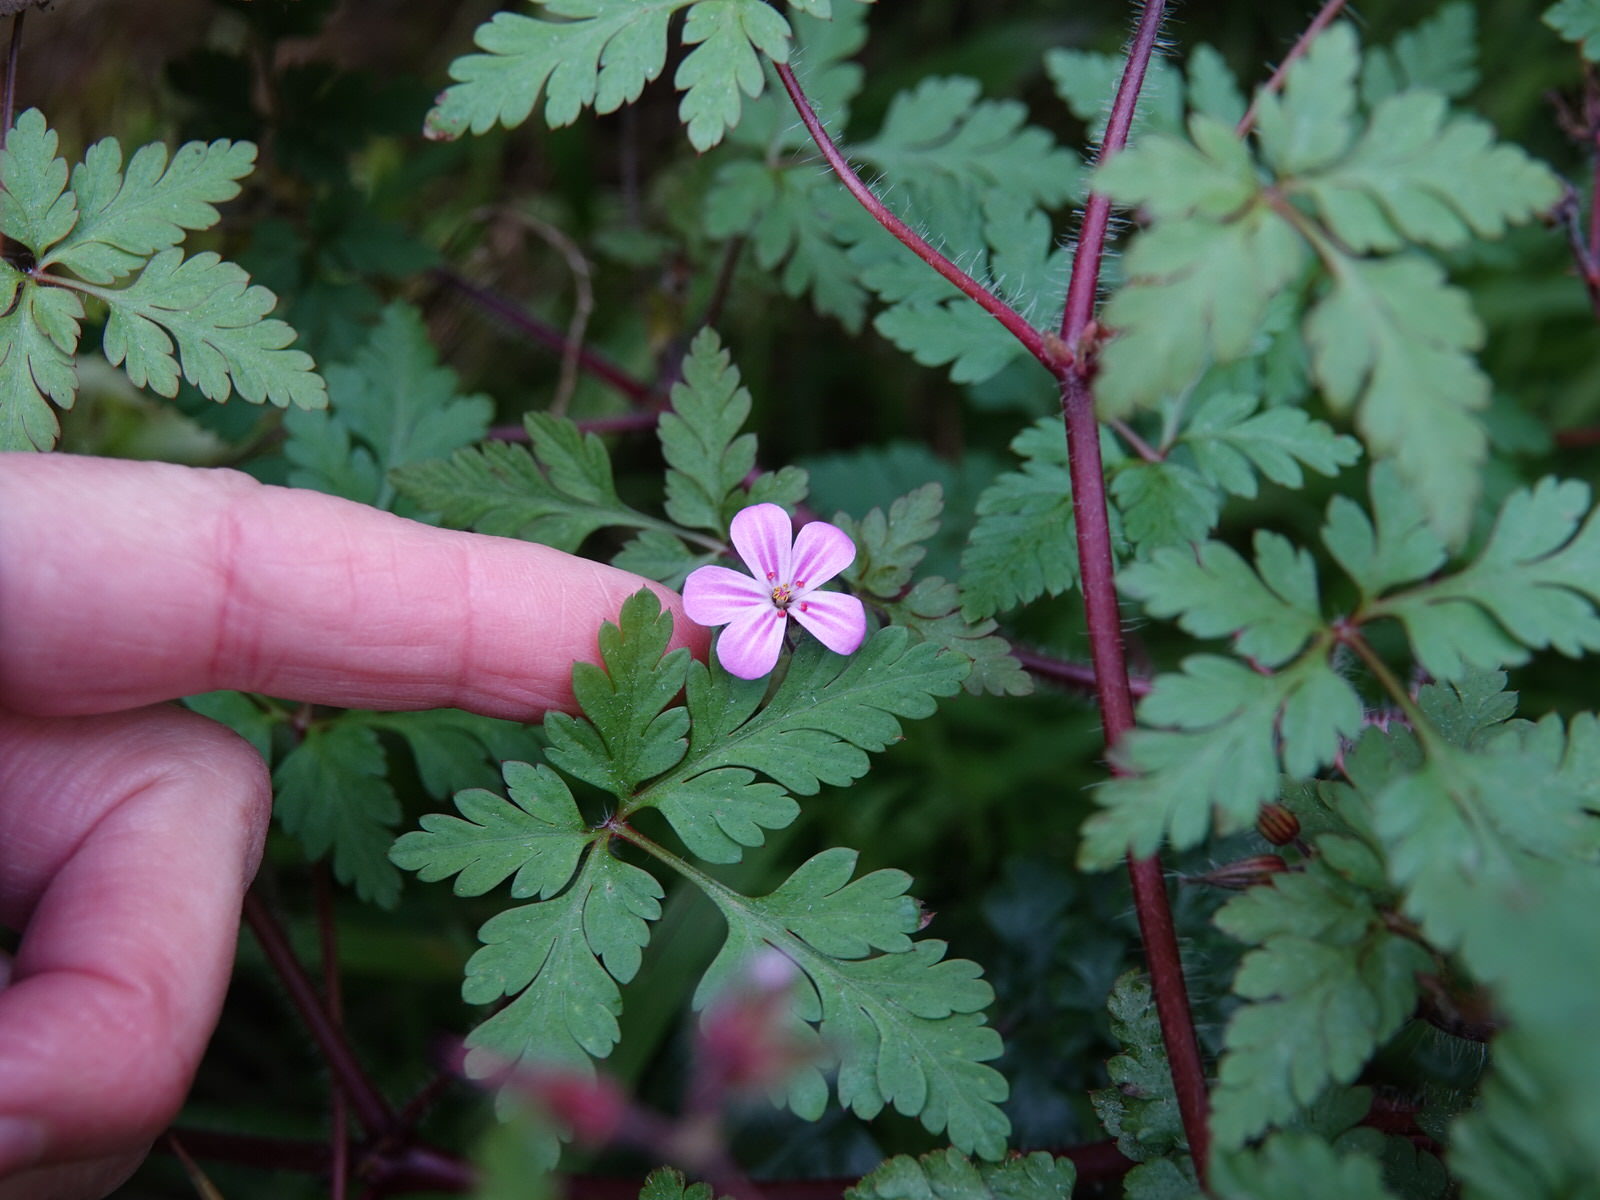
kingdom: Plantae
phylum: Tracheophyta
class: Magnoliopsida
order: Geraniales
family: Geraniaceae
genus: Geranium
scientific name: Geranium yeoi
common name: Greater herb robert
